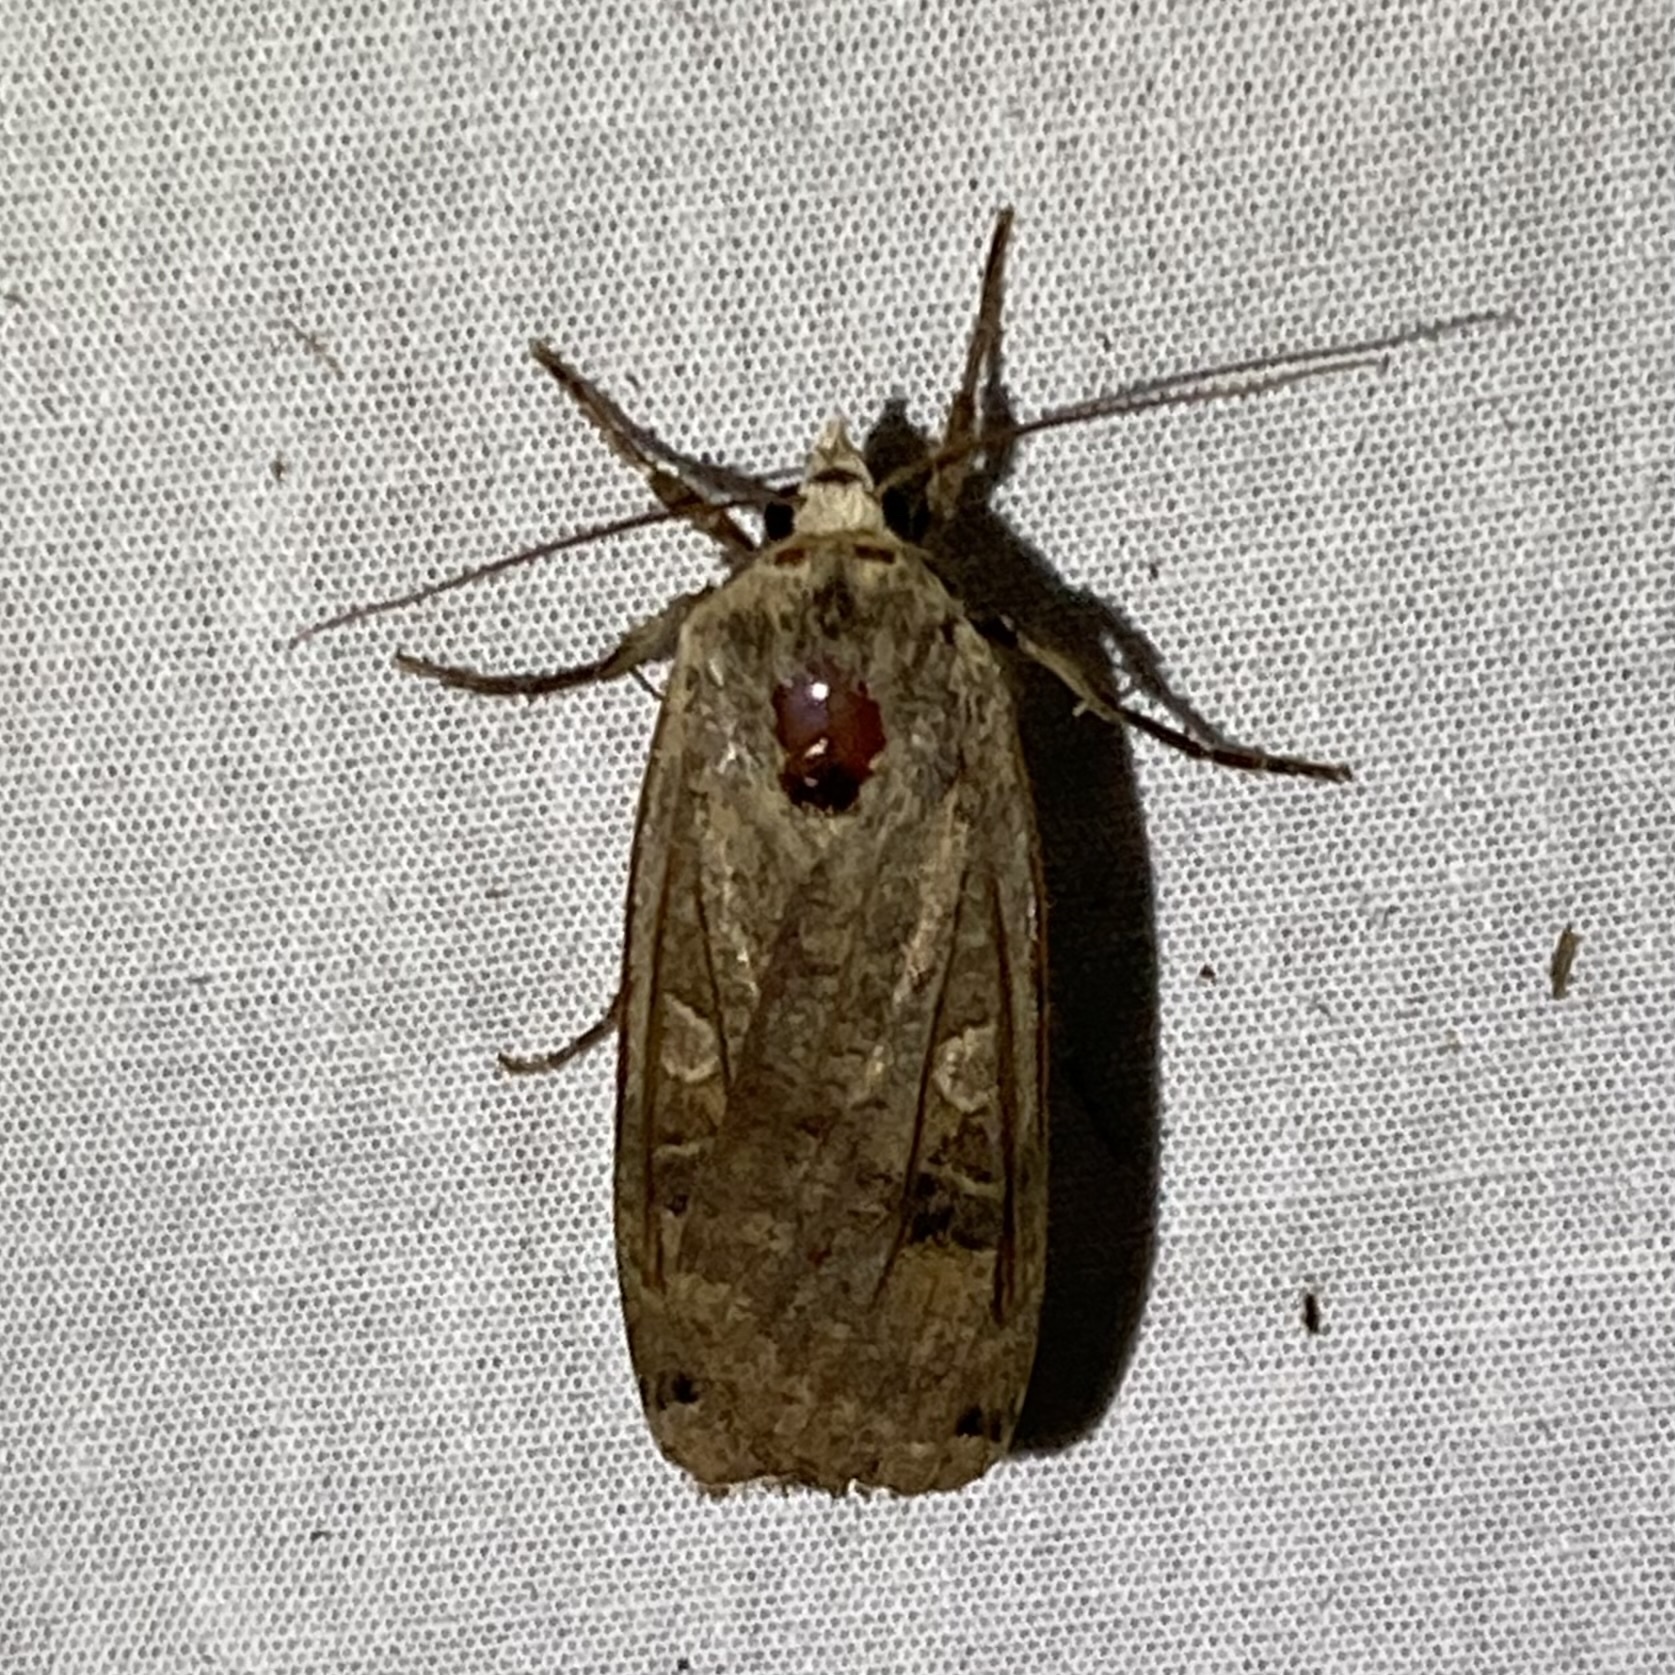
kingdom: Animalia
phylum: Arthropoda
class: Insecta
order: Lepidoptera
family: Noctuidae
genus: Noctua
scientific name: Noctua pronuba
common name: Large yellow underwing
